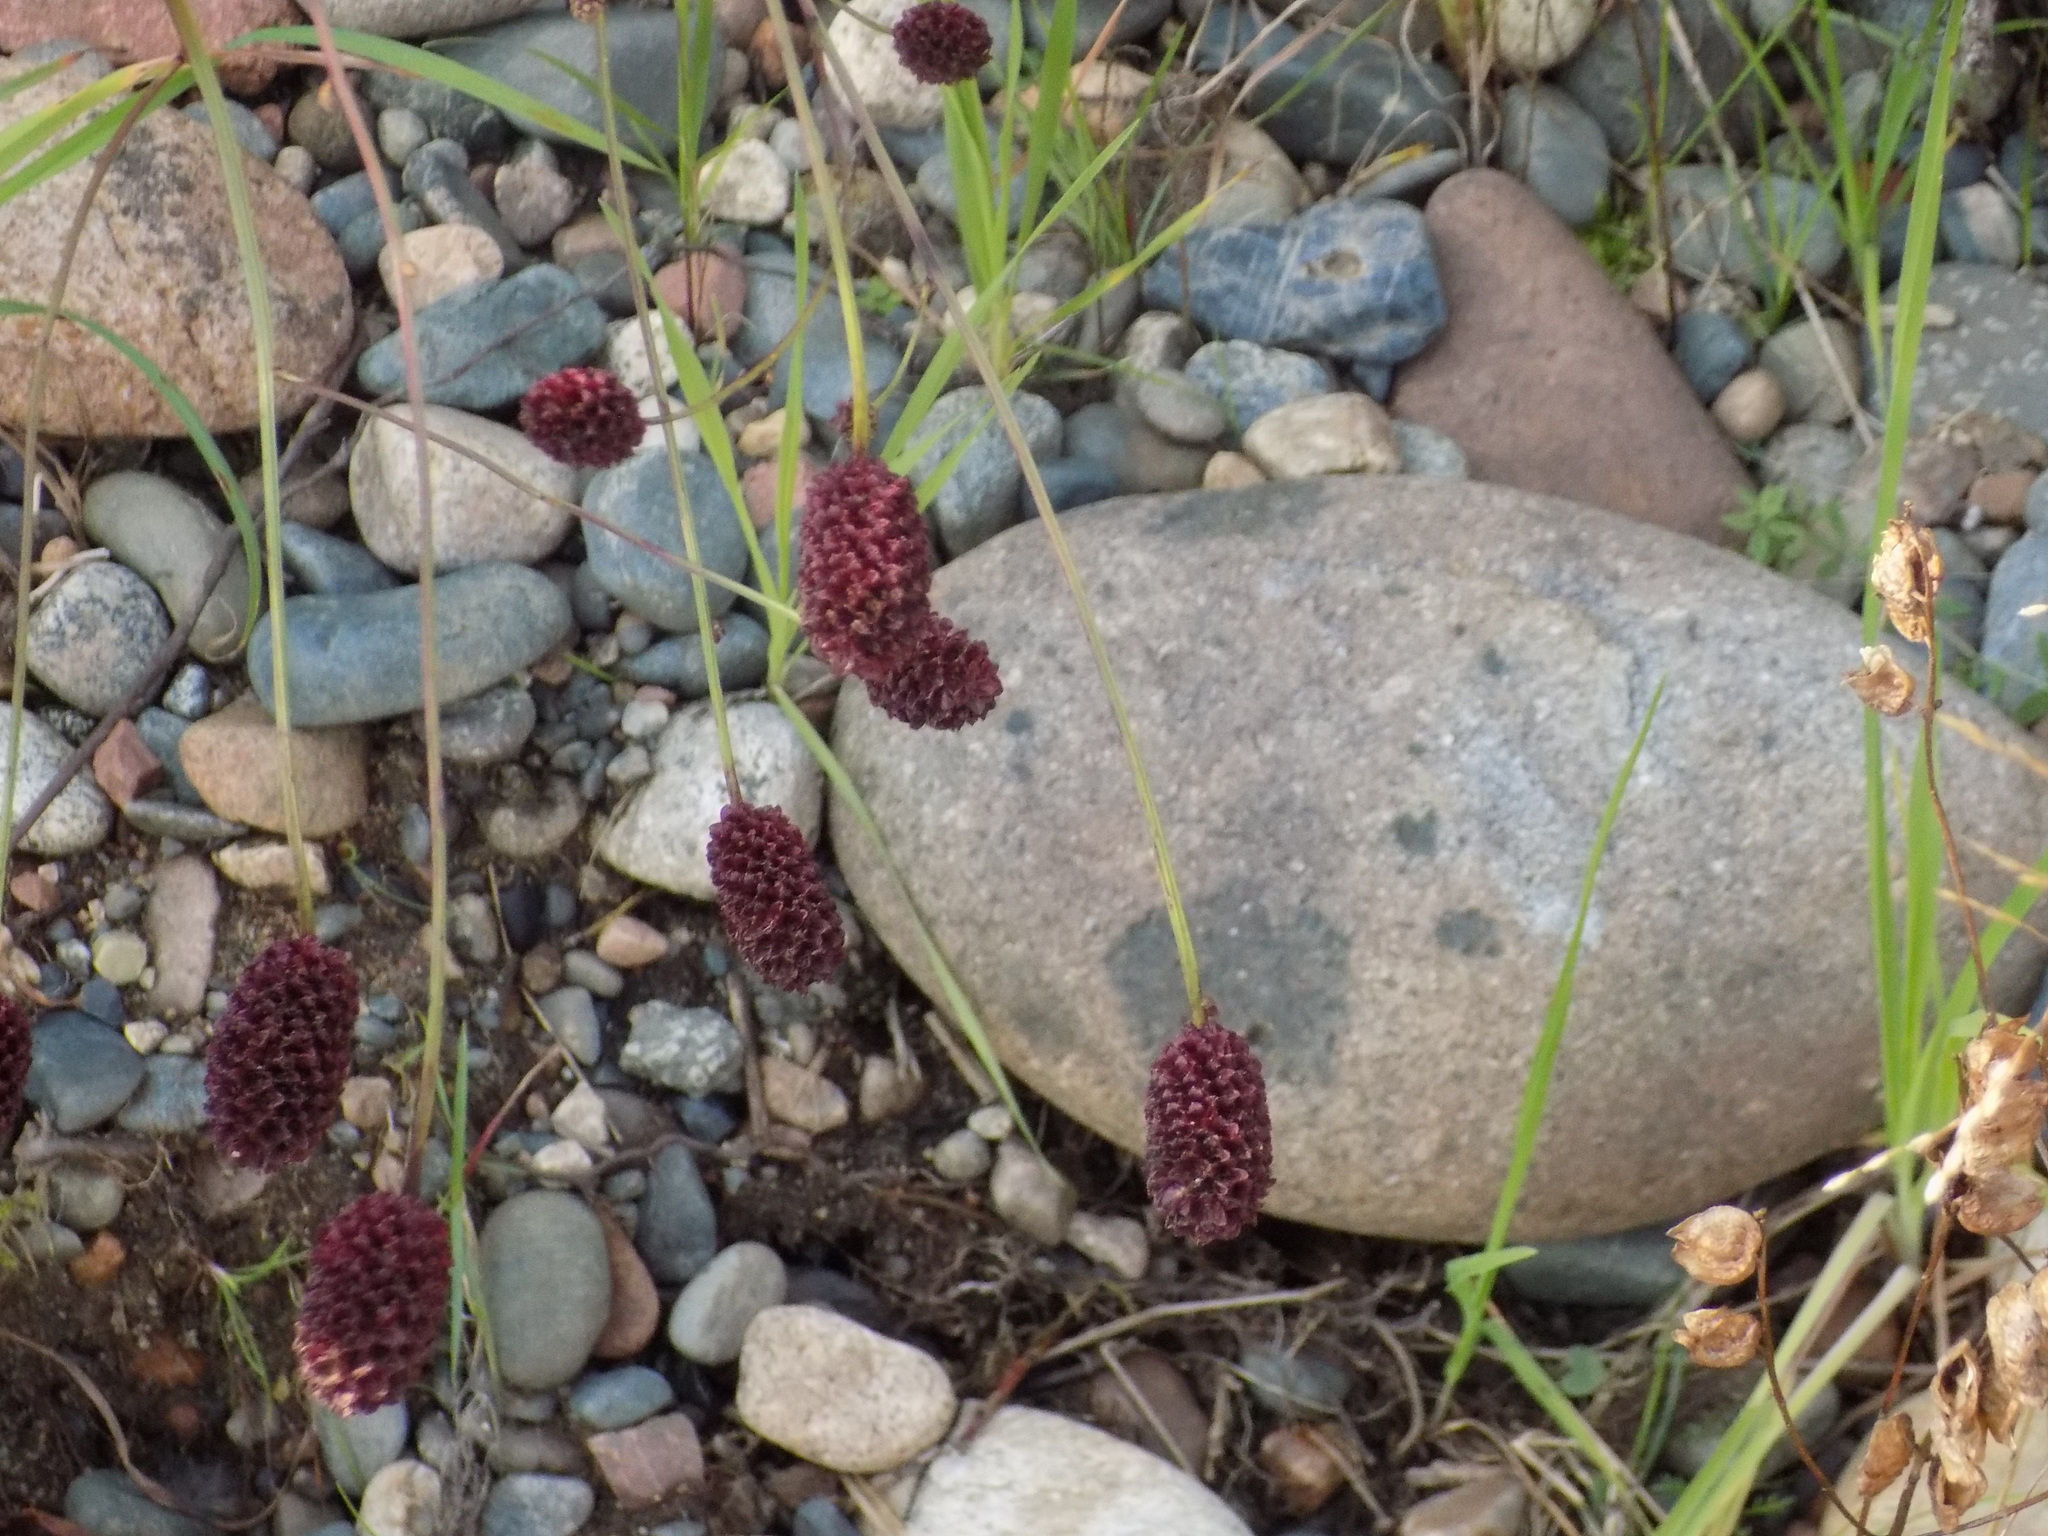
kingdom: Plantae
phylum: Tracheophyta
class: Magnoliopsida
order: Rosales
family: Rosaceae
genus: Sanguisorba
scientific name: Sanguisorba officinalis
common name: Great burnet
